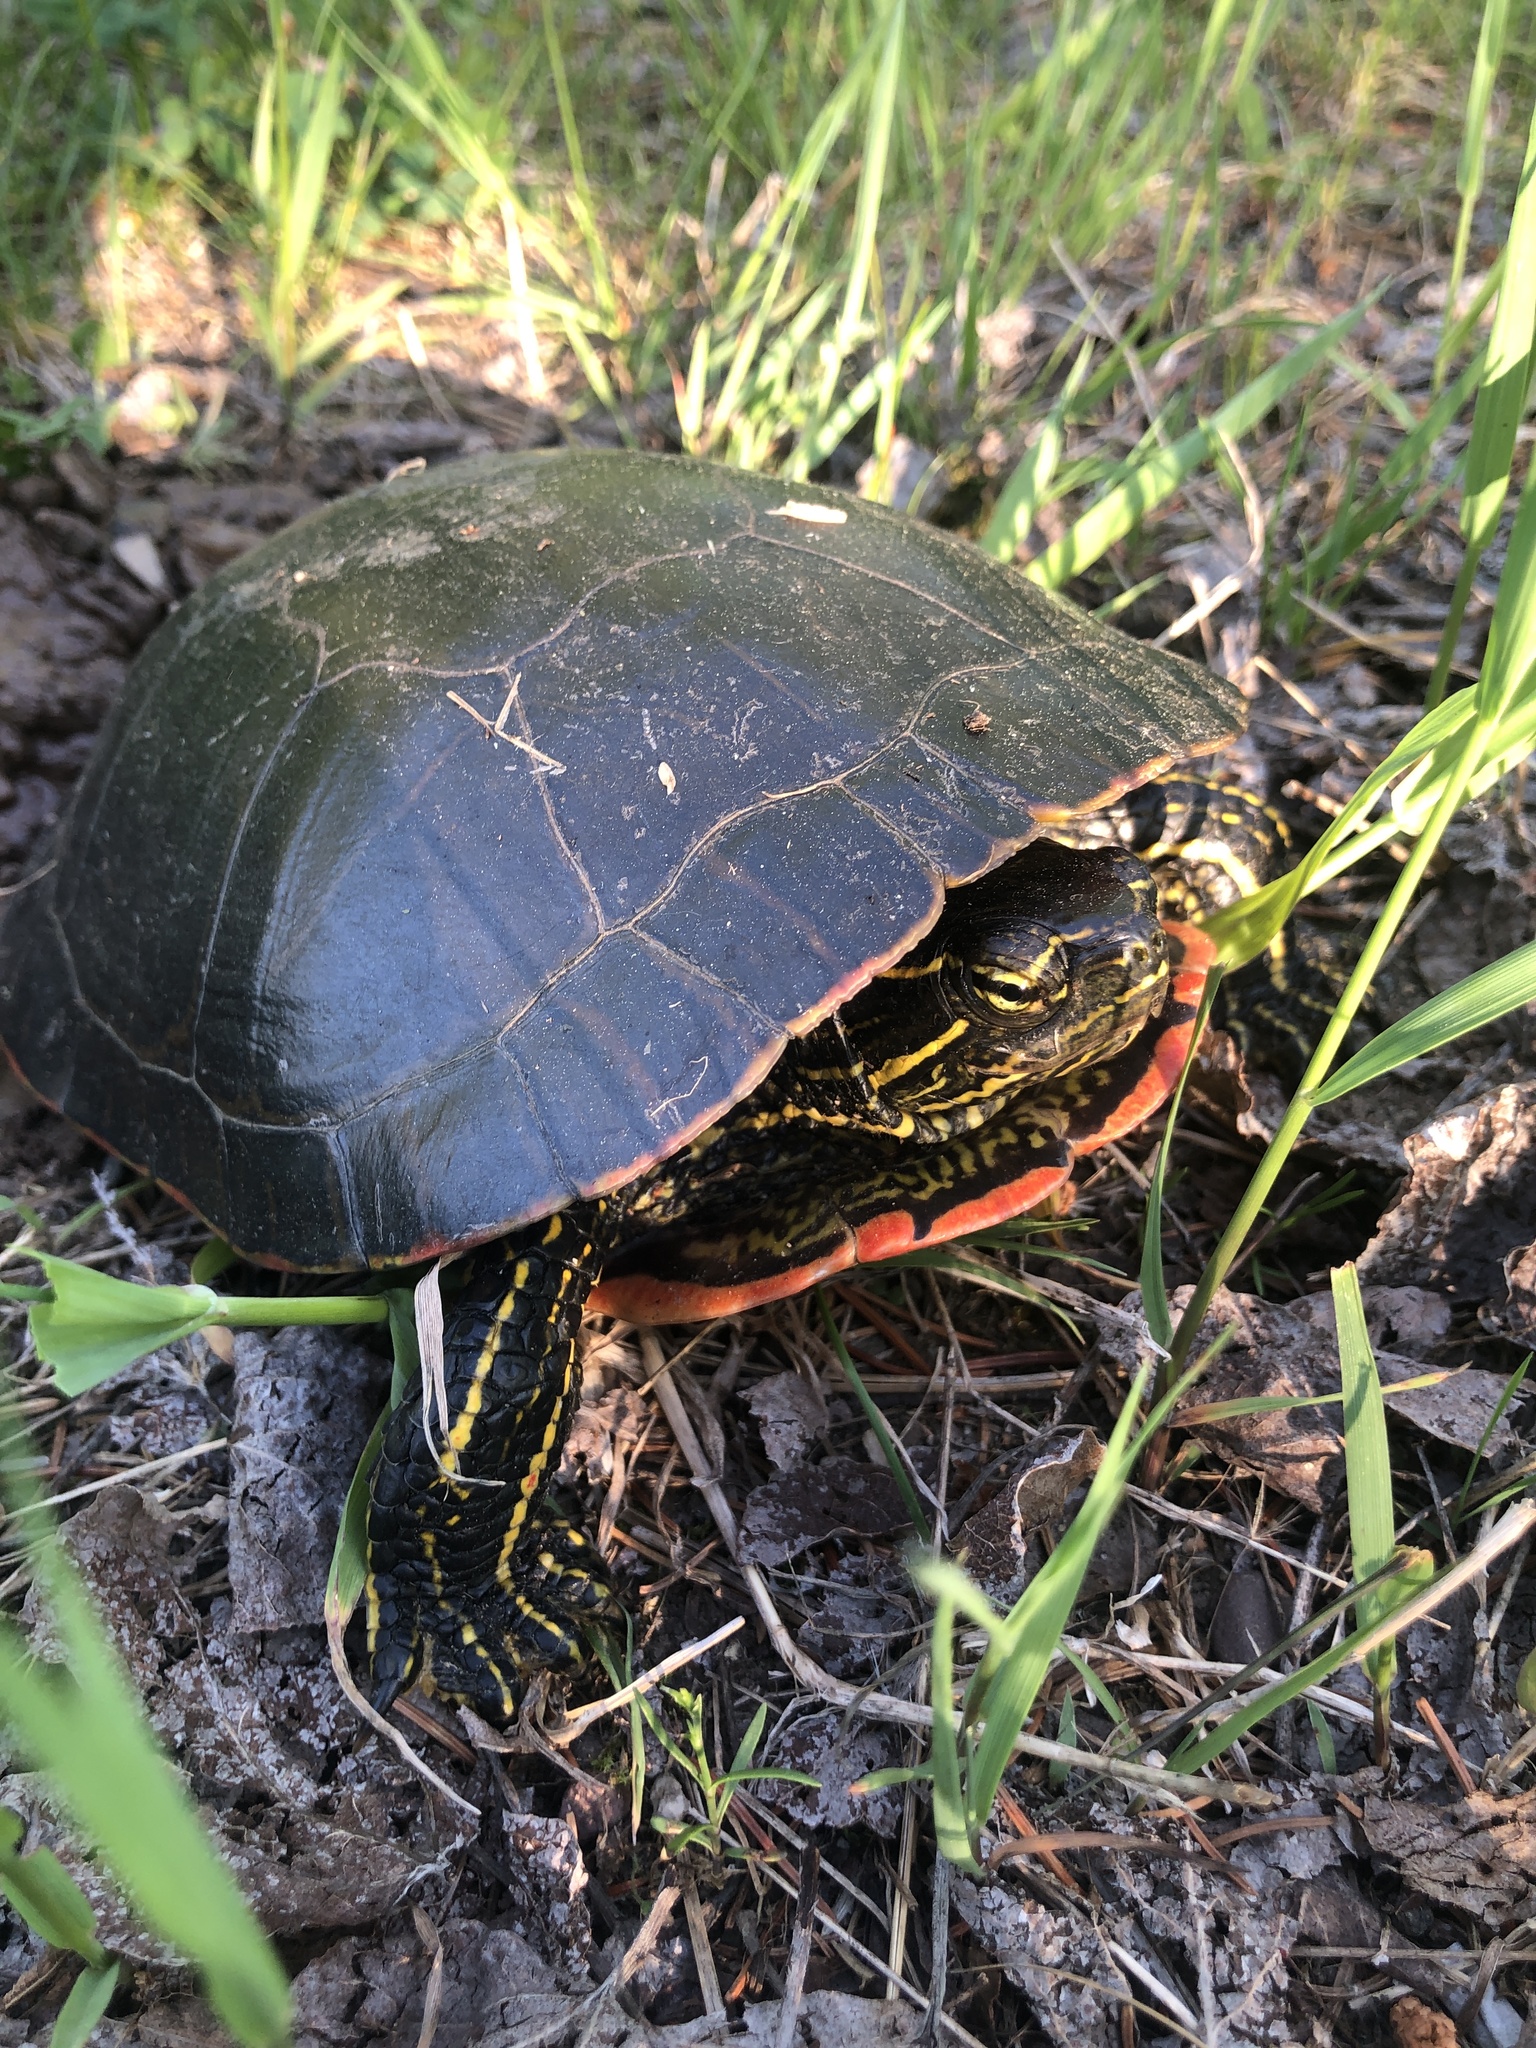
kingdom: Animalia
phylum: Chordata
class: Testudines
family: Emydidae
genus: Chrysemys
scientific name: Chrysemys picta
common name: Painted turtle
